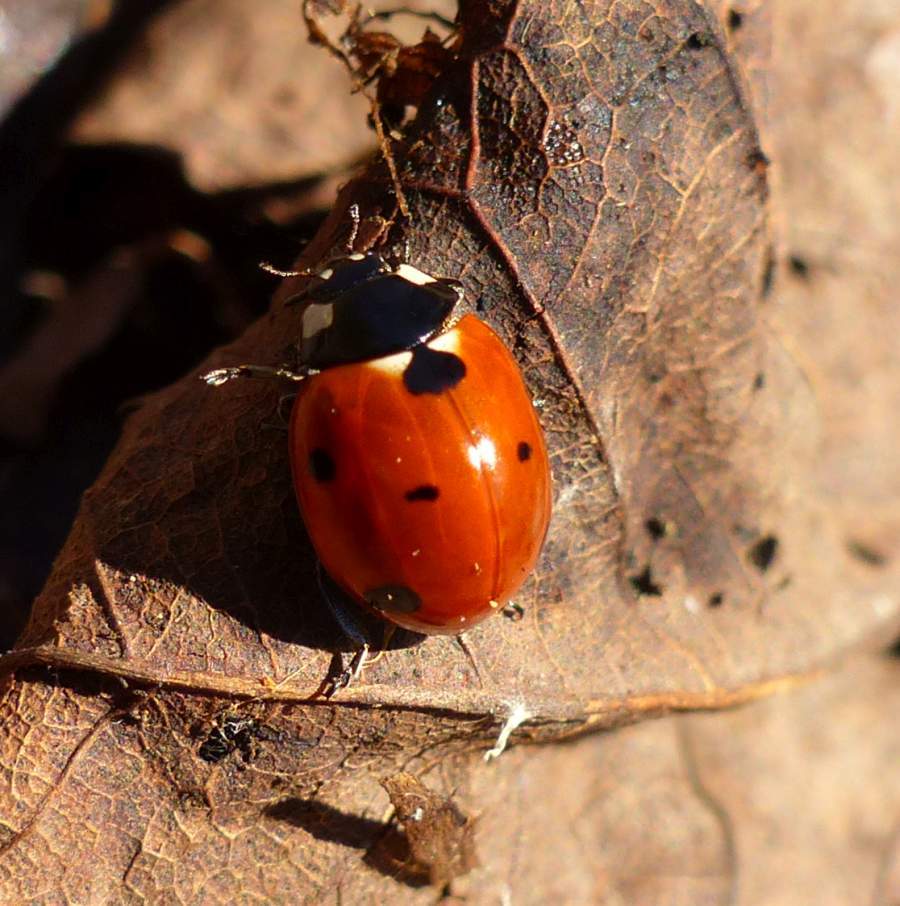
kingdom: Animalia
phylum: Arthropoda
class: Insecta
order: Coleoptera
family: Coccinellidae
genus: Coccinella
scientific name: Coccinella septempunctata
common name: Sevenspotted lady beetle
